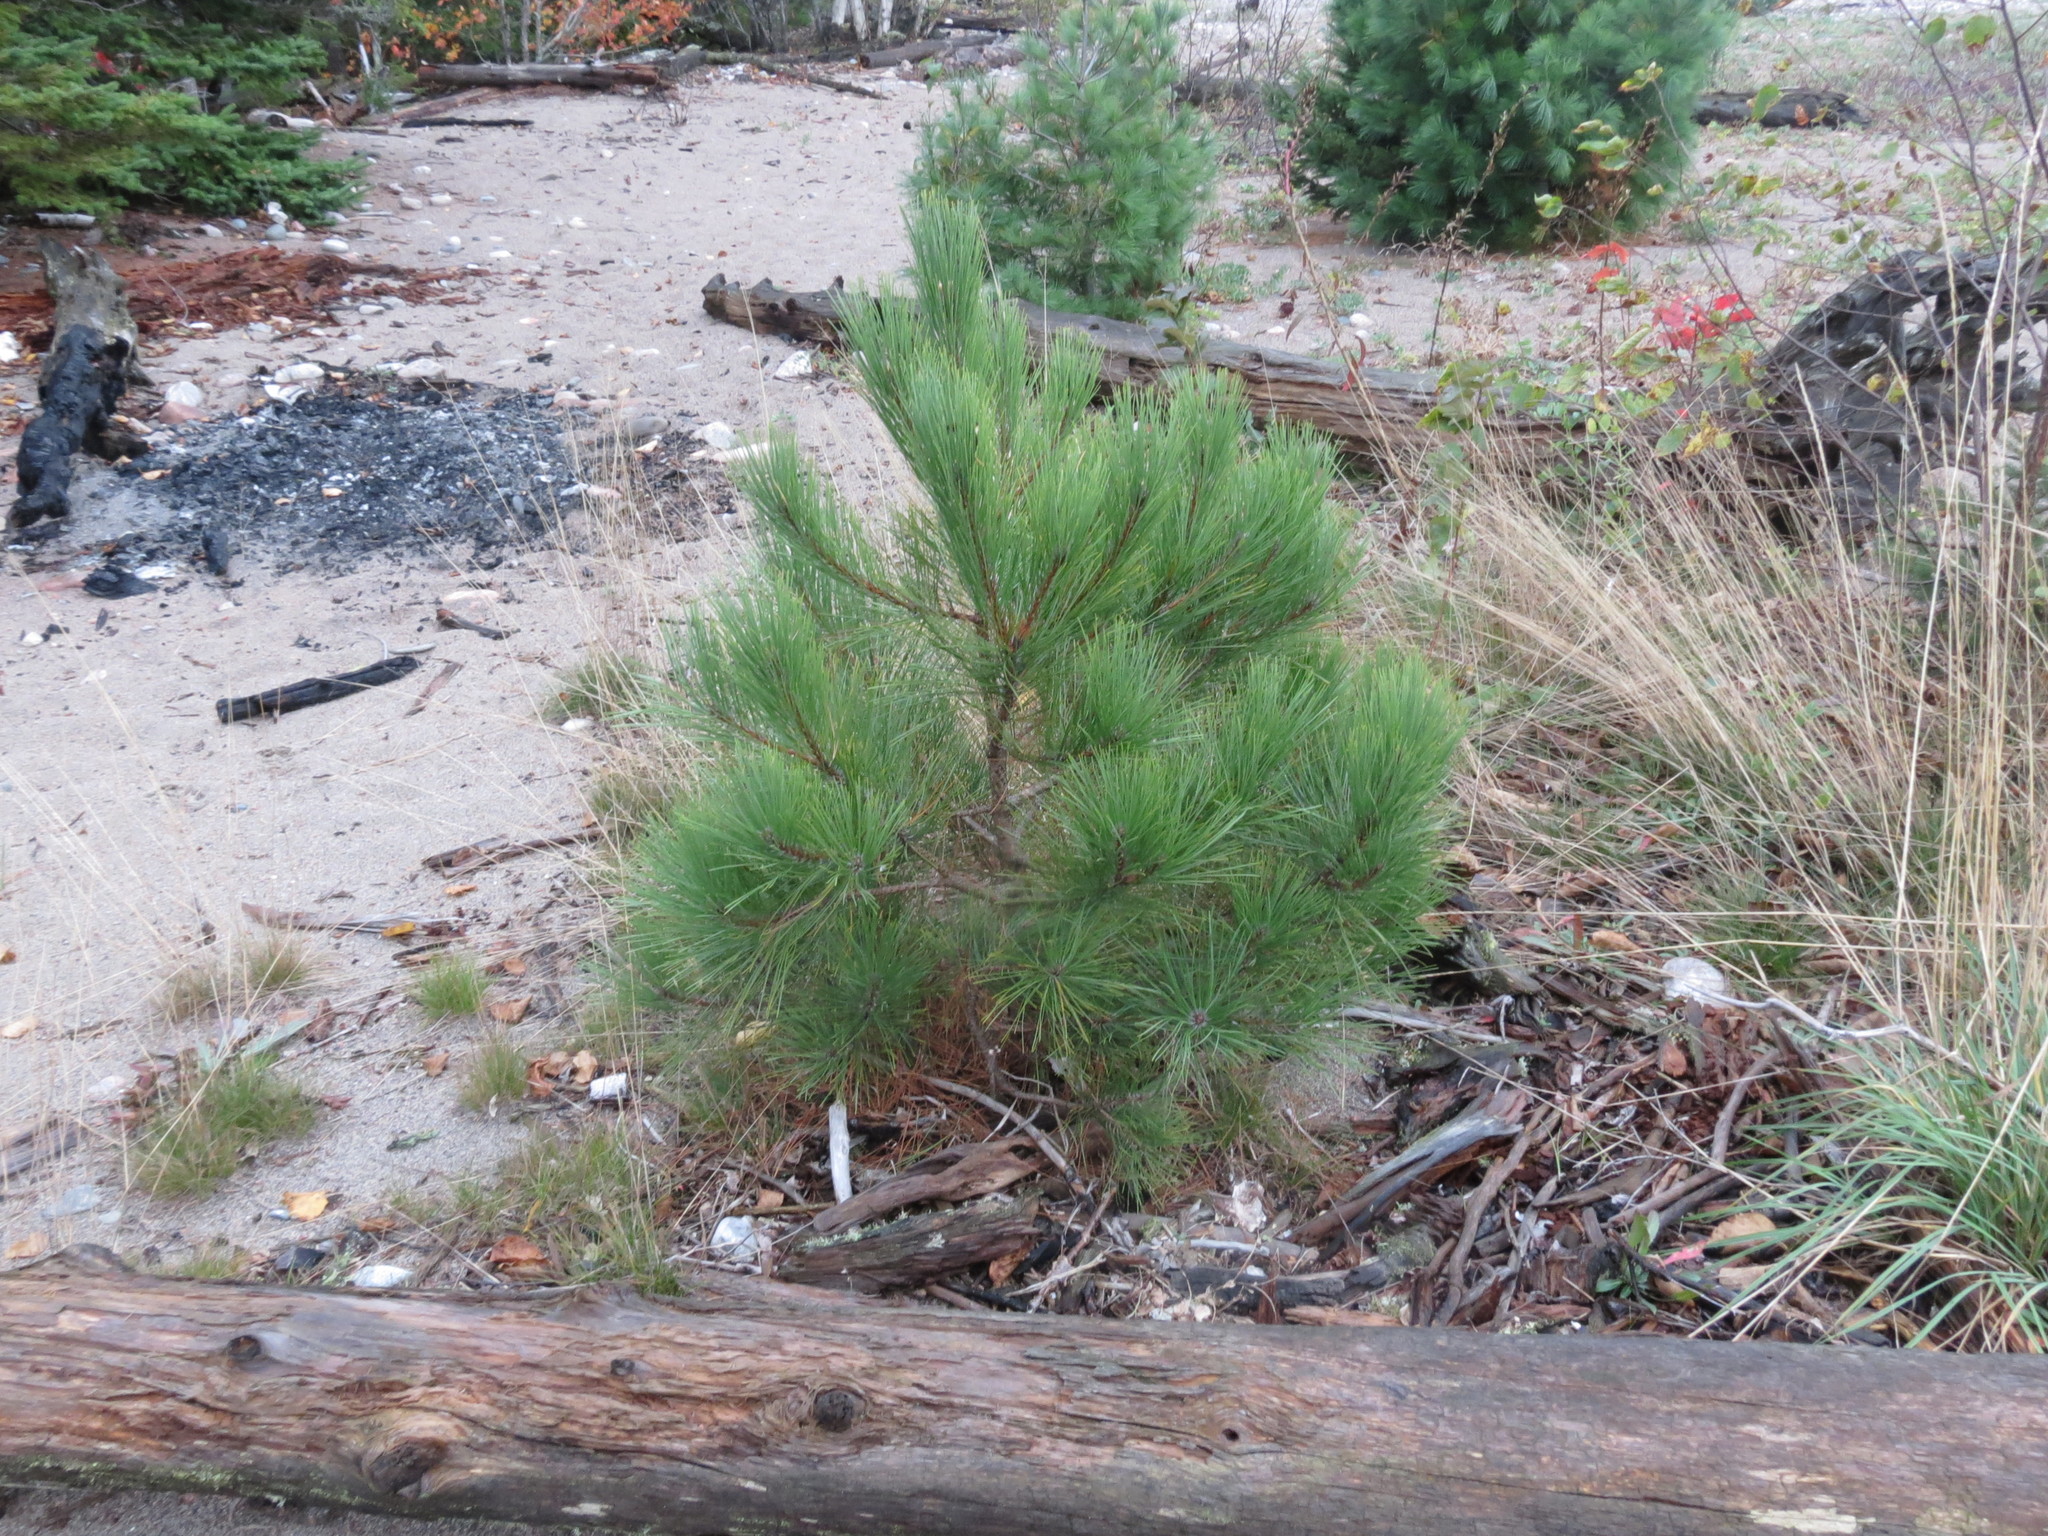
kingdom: Plantae
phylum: Tracheophyta
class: Pinopsida
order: Pinales
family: Pinaceae
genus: Pinus
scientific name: Pinus resinosa
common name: Norway pine
